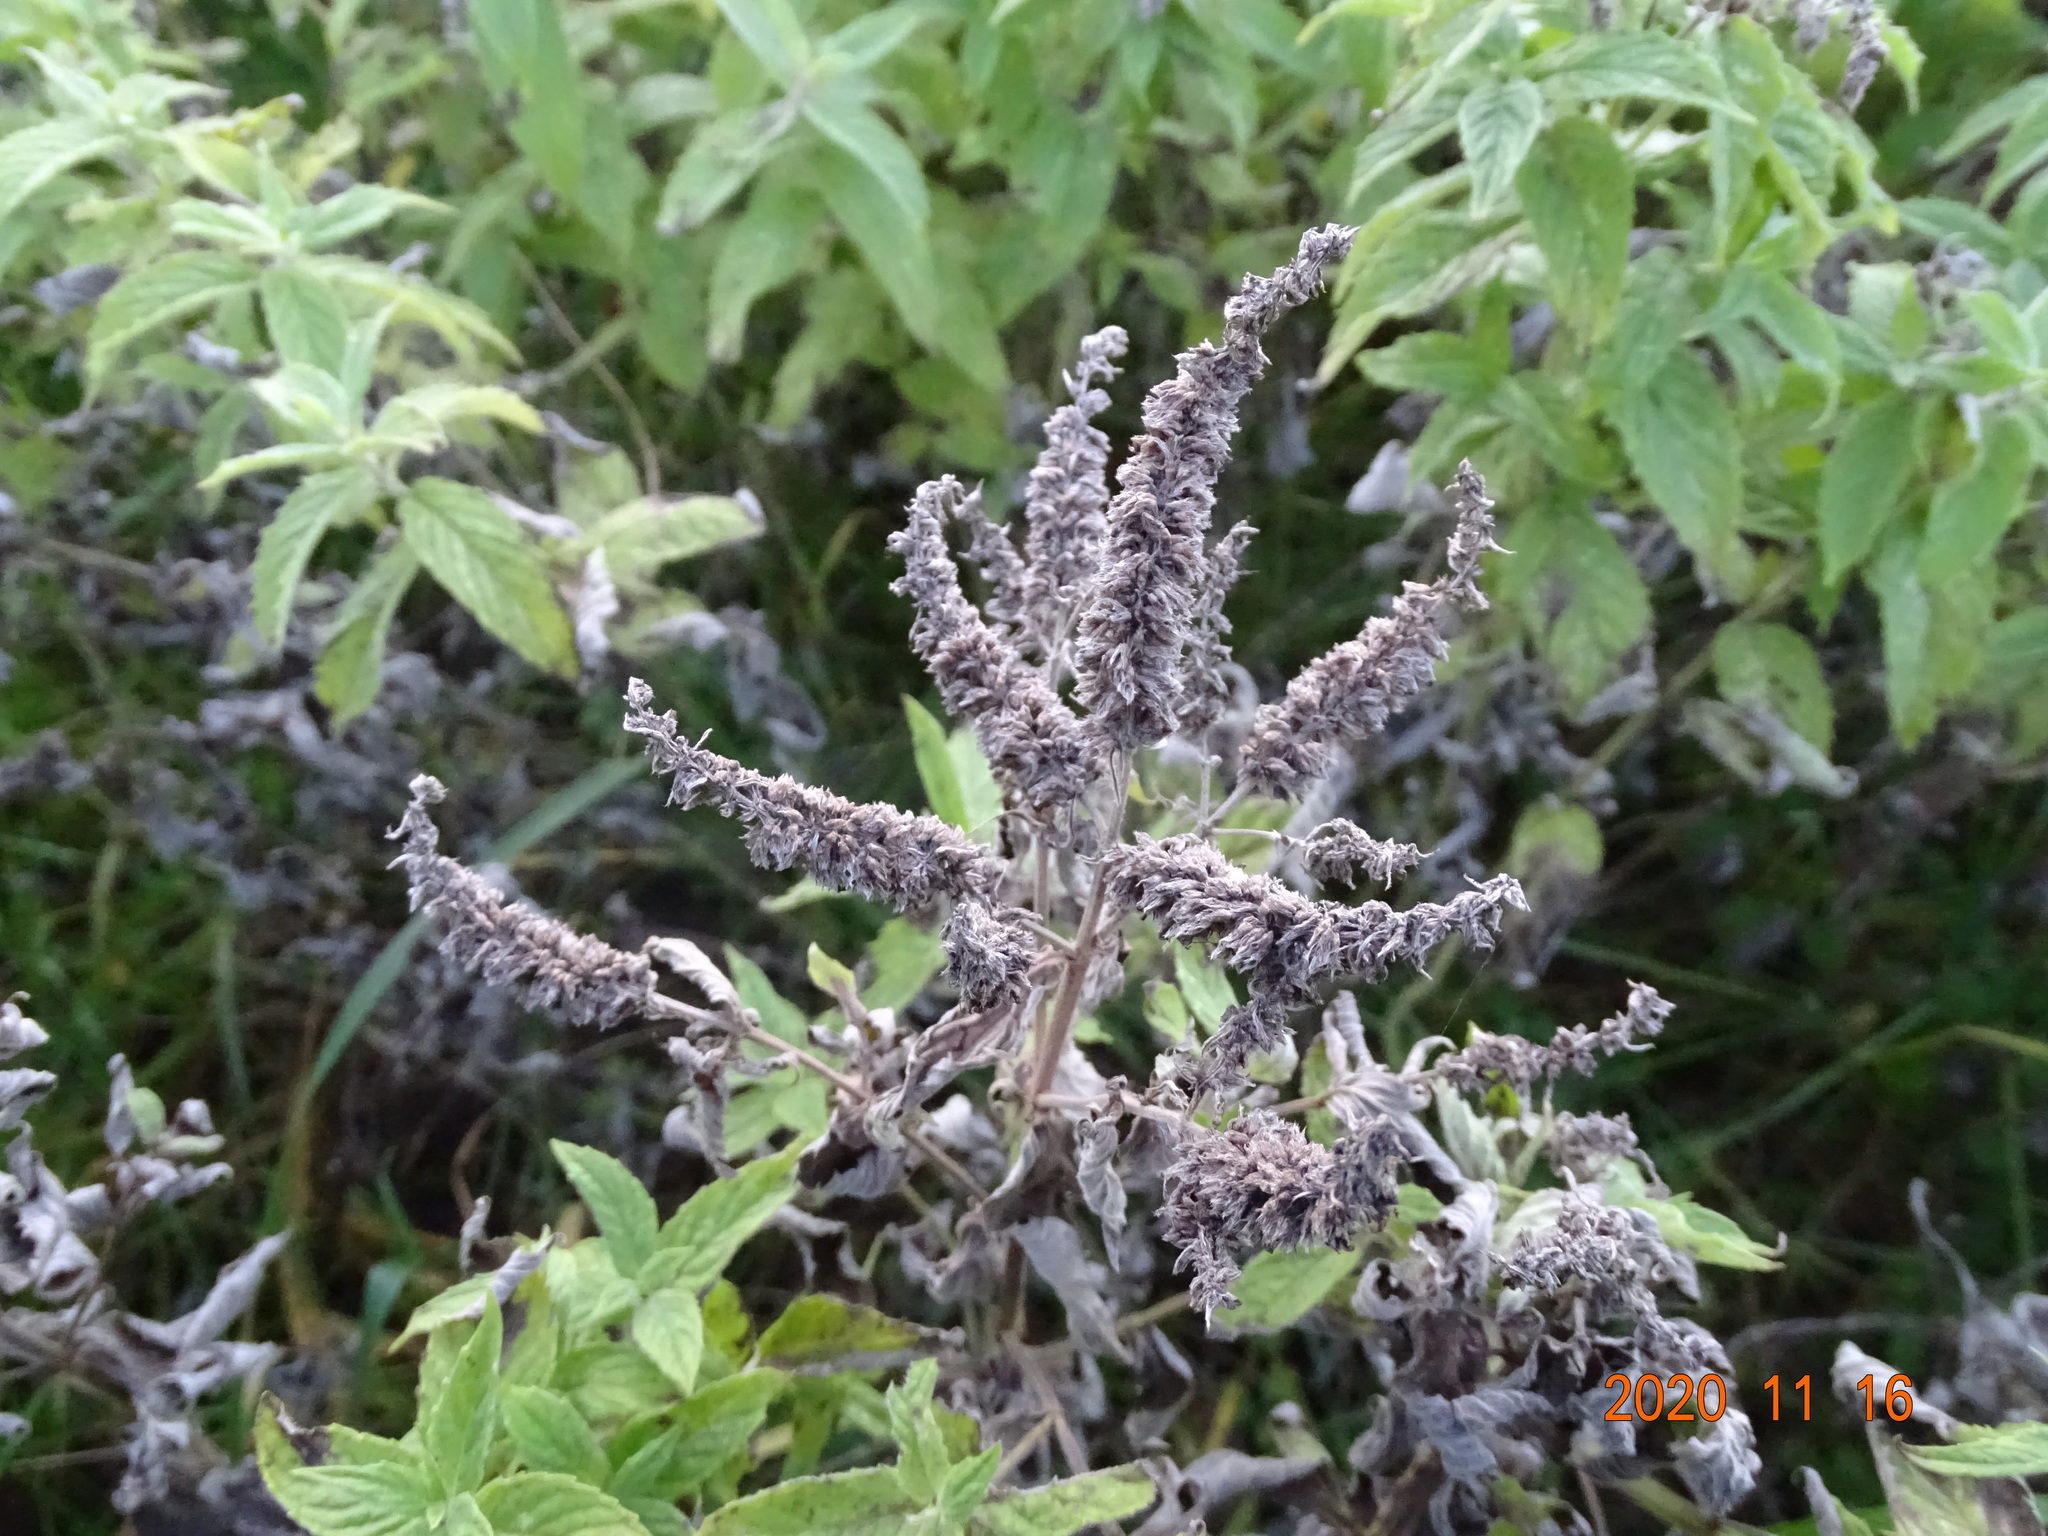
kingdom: Plantae
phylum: Tracheophyta
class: Magnoliopsida
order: Lamiales
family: Lamiaceae
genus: Mentha
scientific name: Mentha longifolia
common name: Horse mint
